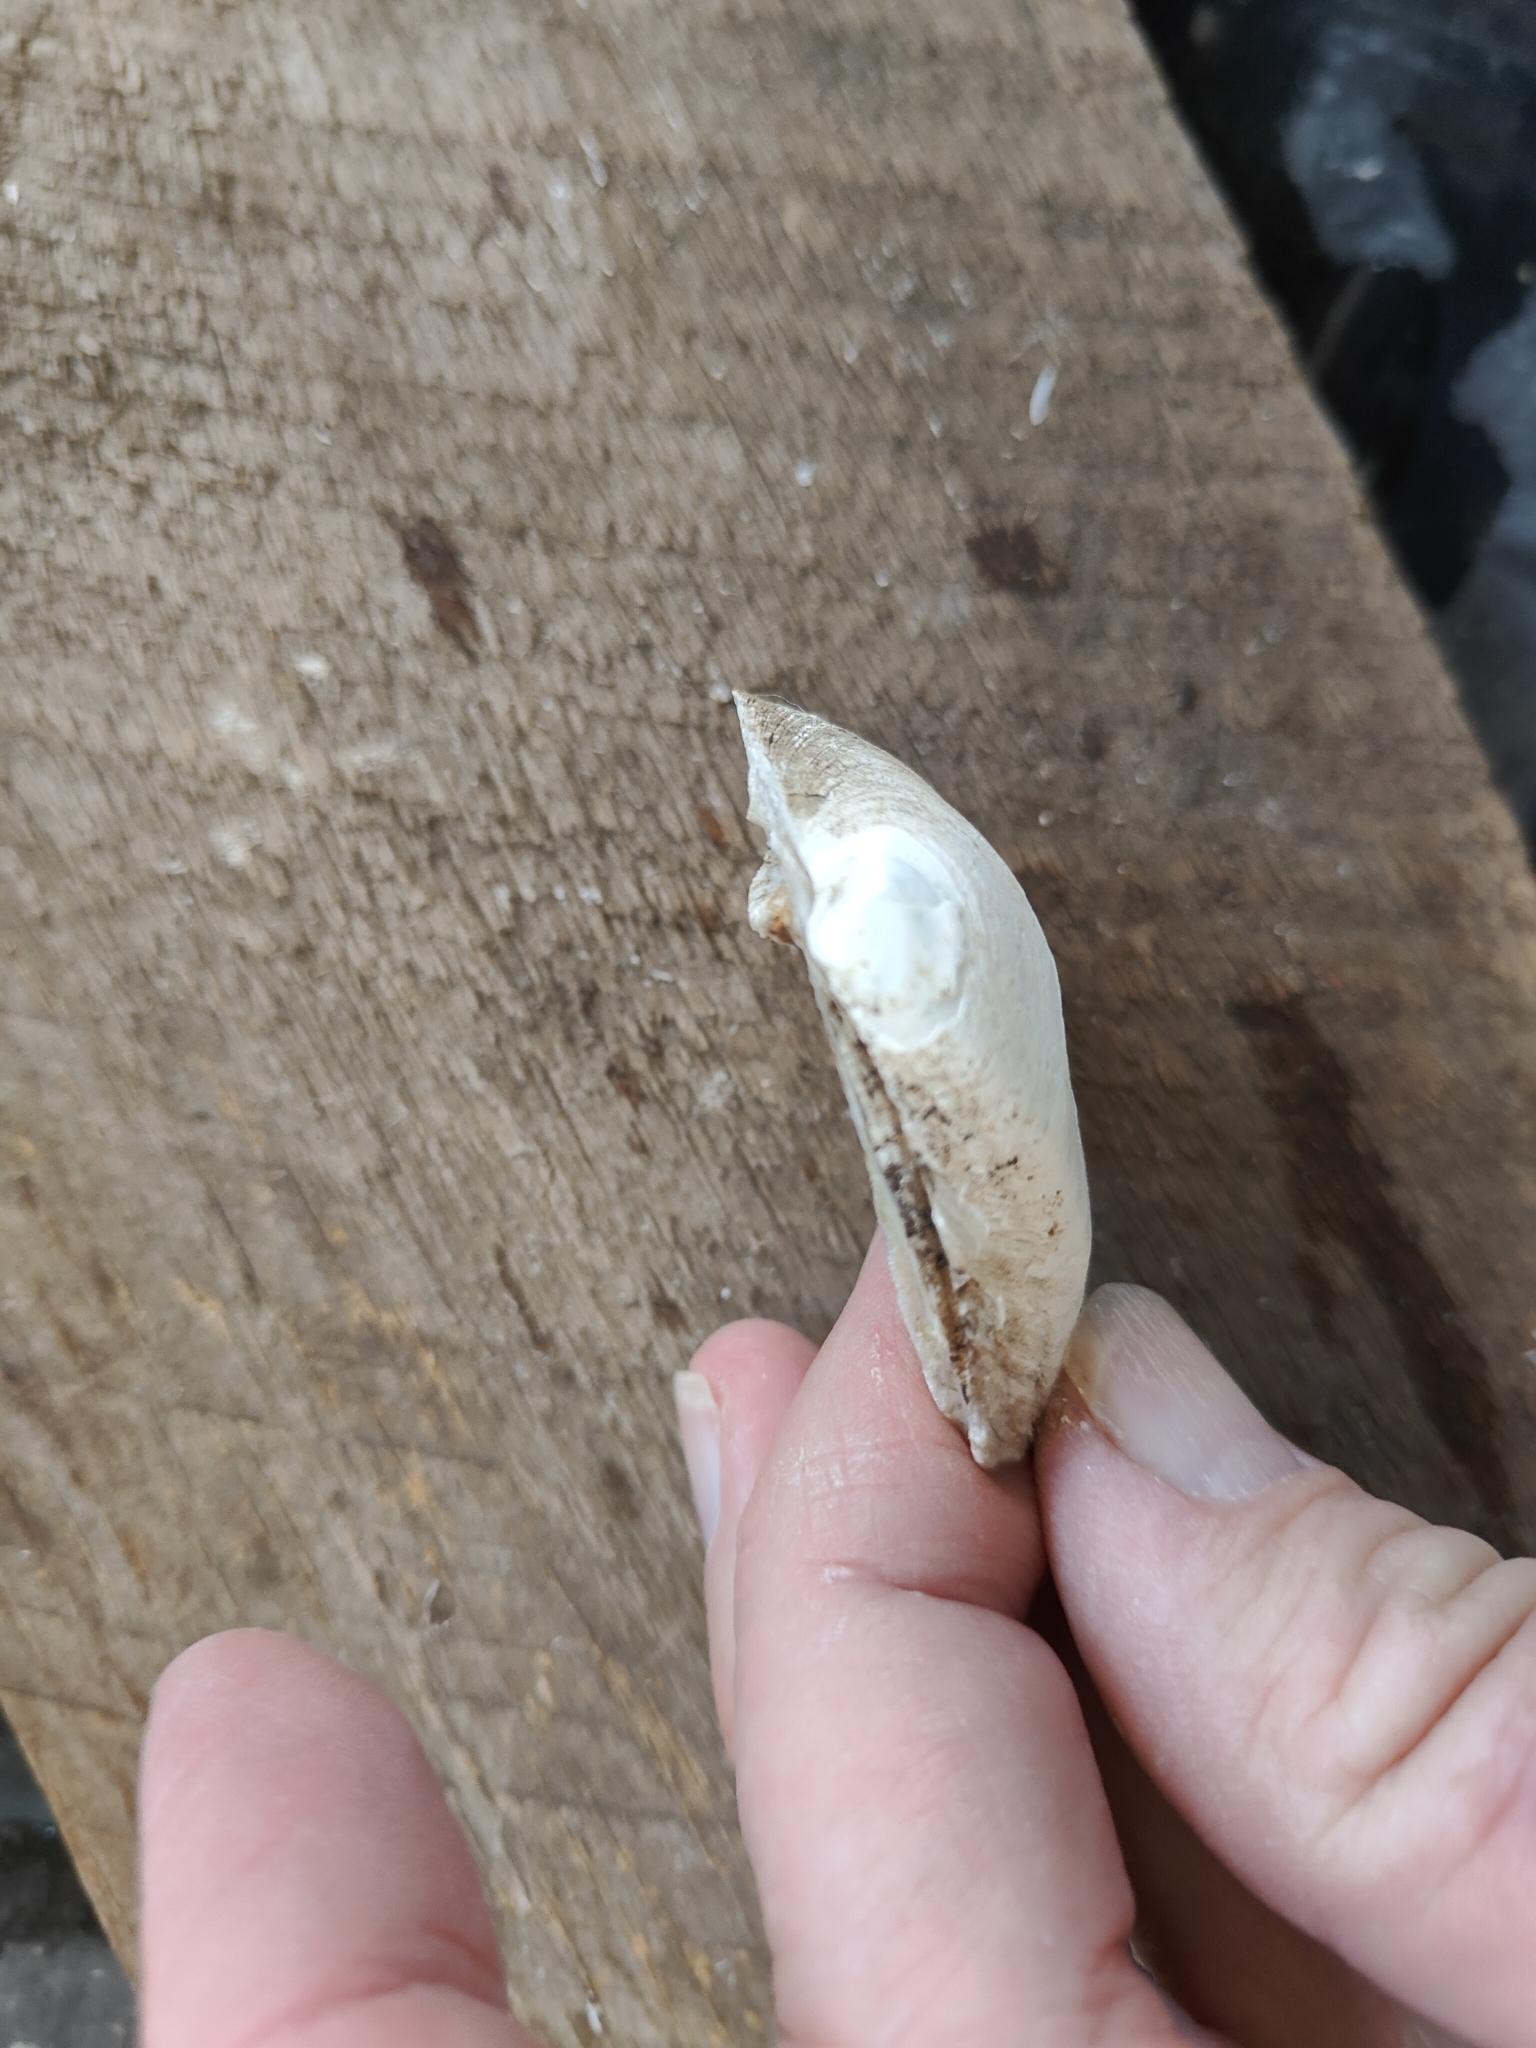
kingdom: Animalia
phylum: Mollusca
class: Bivalvia
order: Unionida
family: Unionidae
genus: Fusconaia
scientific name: Fusconaia flava
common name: Wabash pigtoe
